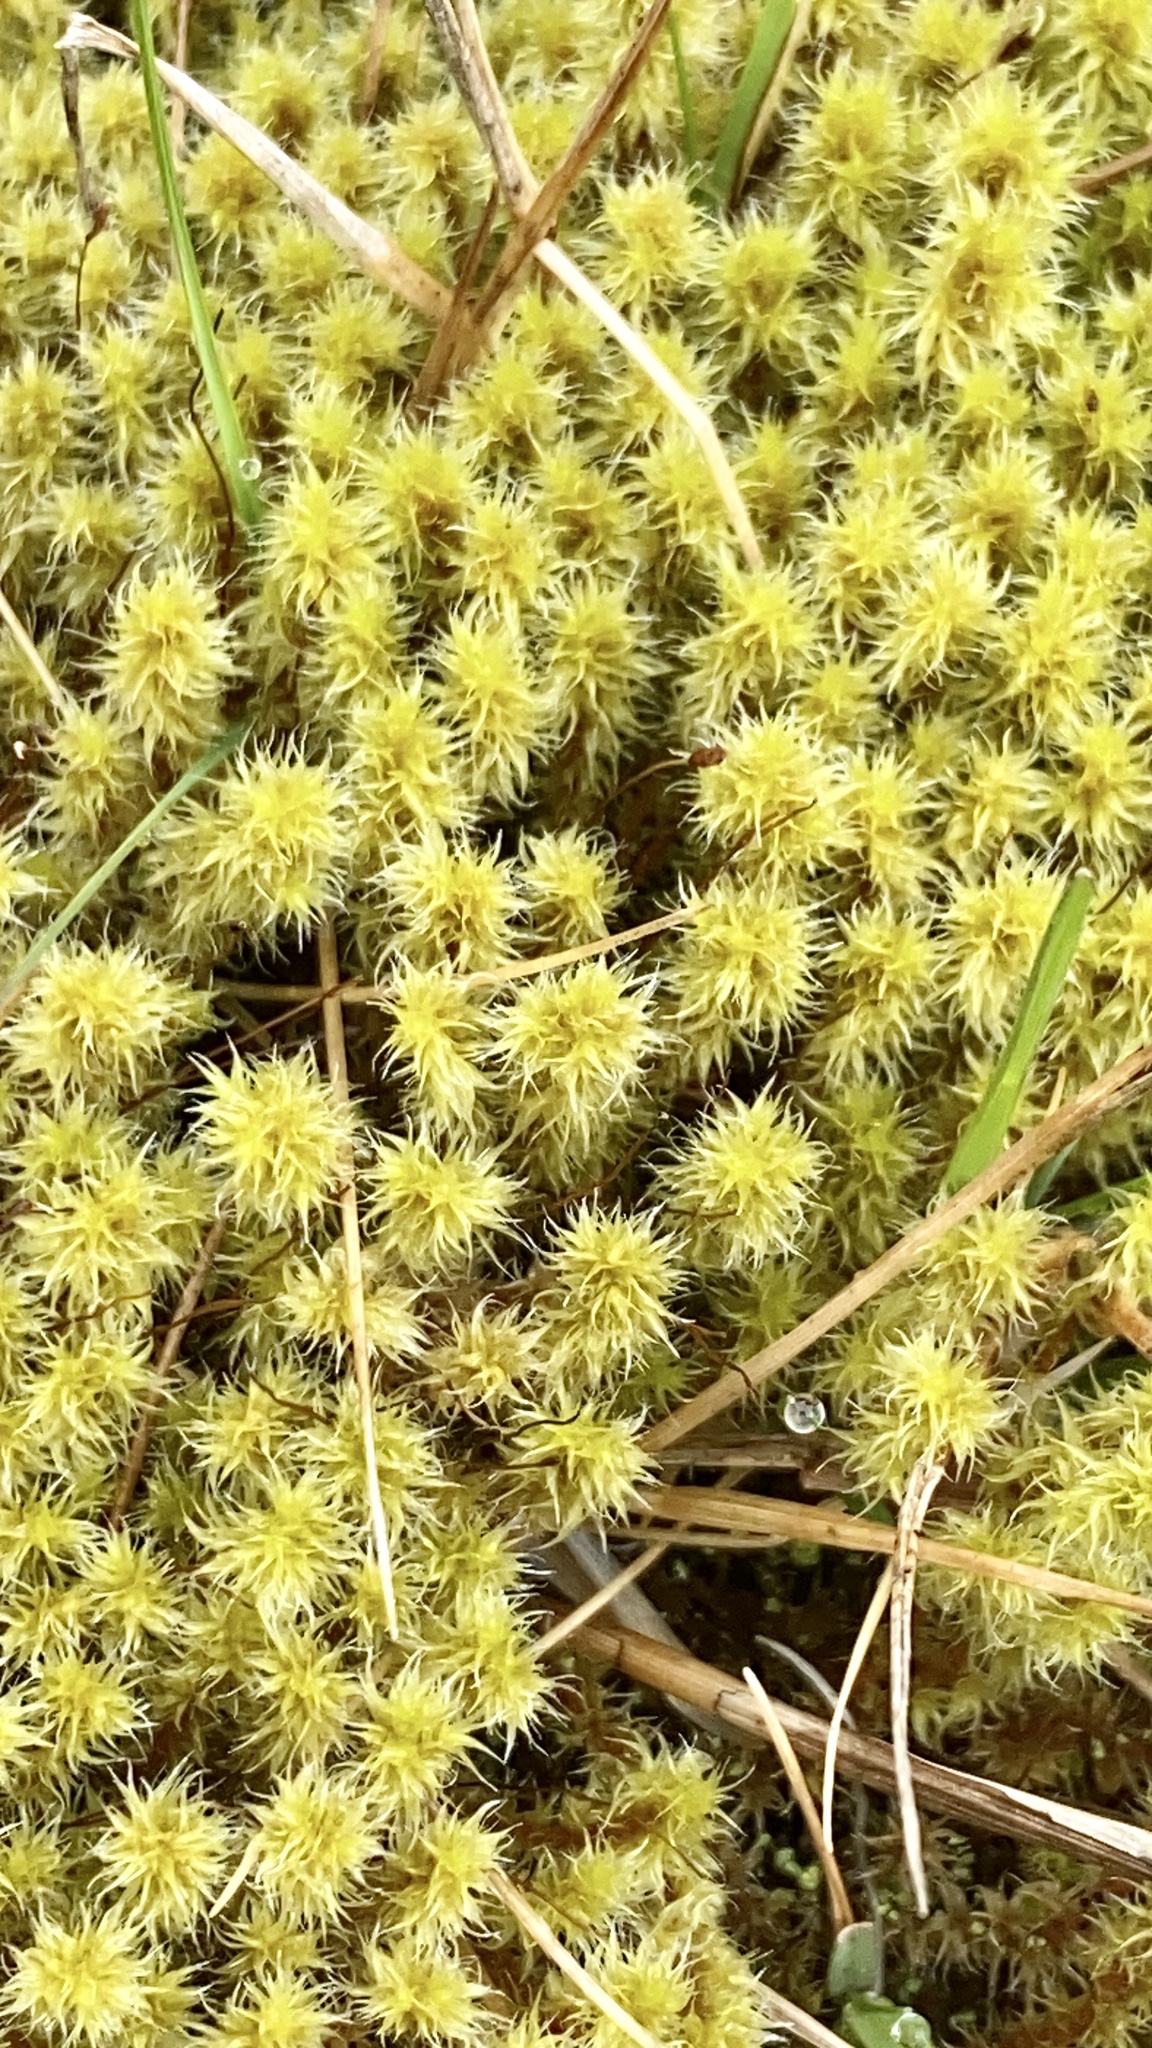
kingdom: Plantae
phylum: Bryophyta
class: Bryopsida
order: Bartramiales
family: Bartramiaceae
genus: Breutelia
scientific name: Breutelia chrysocoma
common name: Bottle-brush moss
